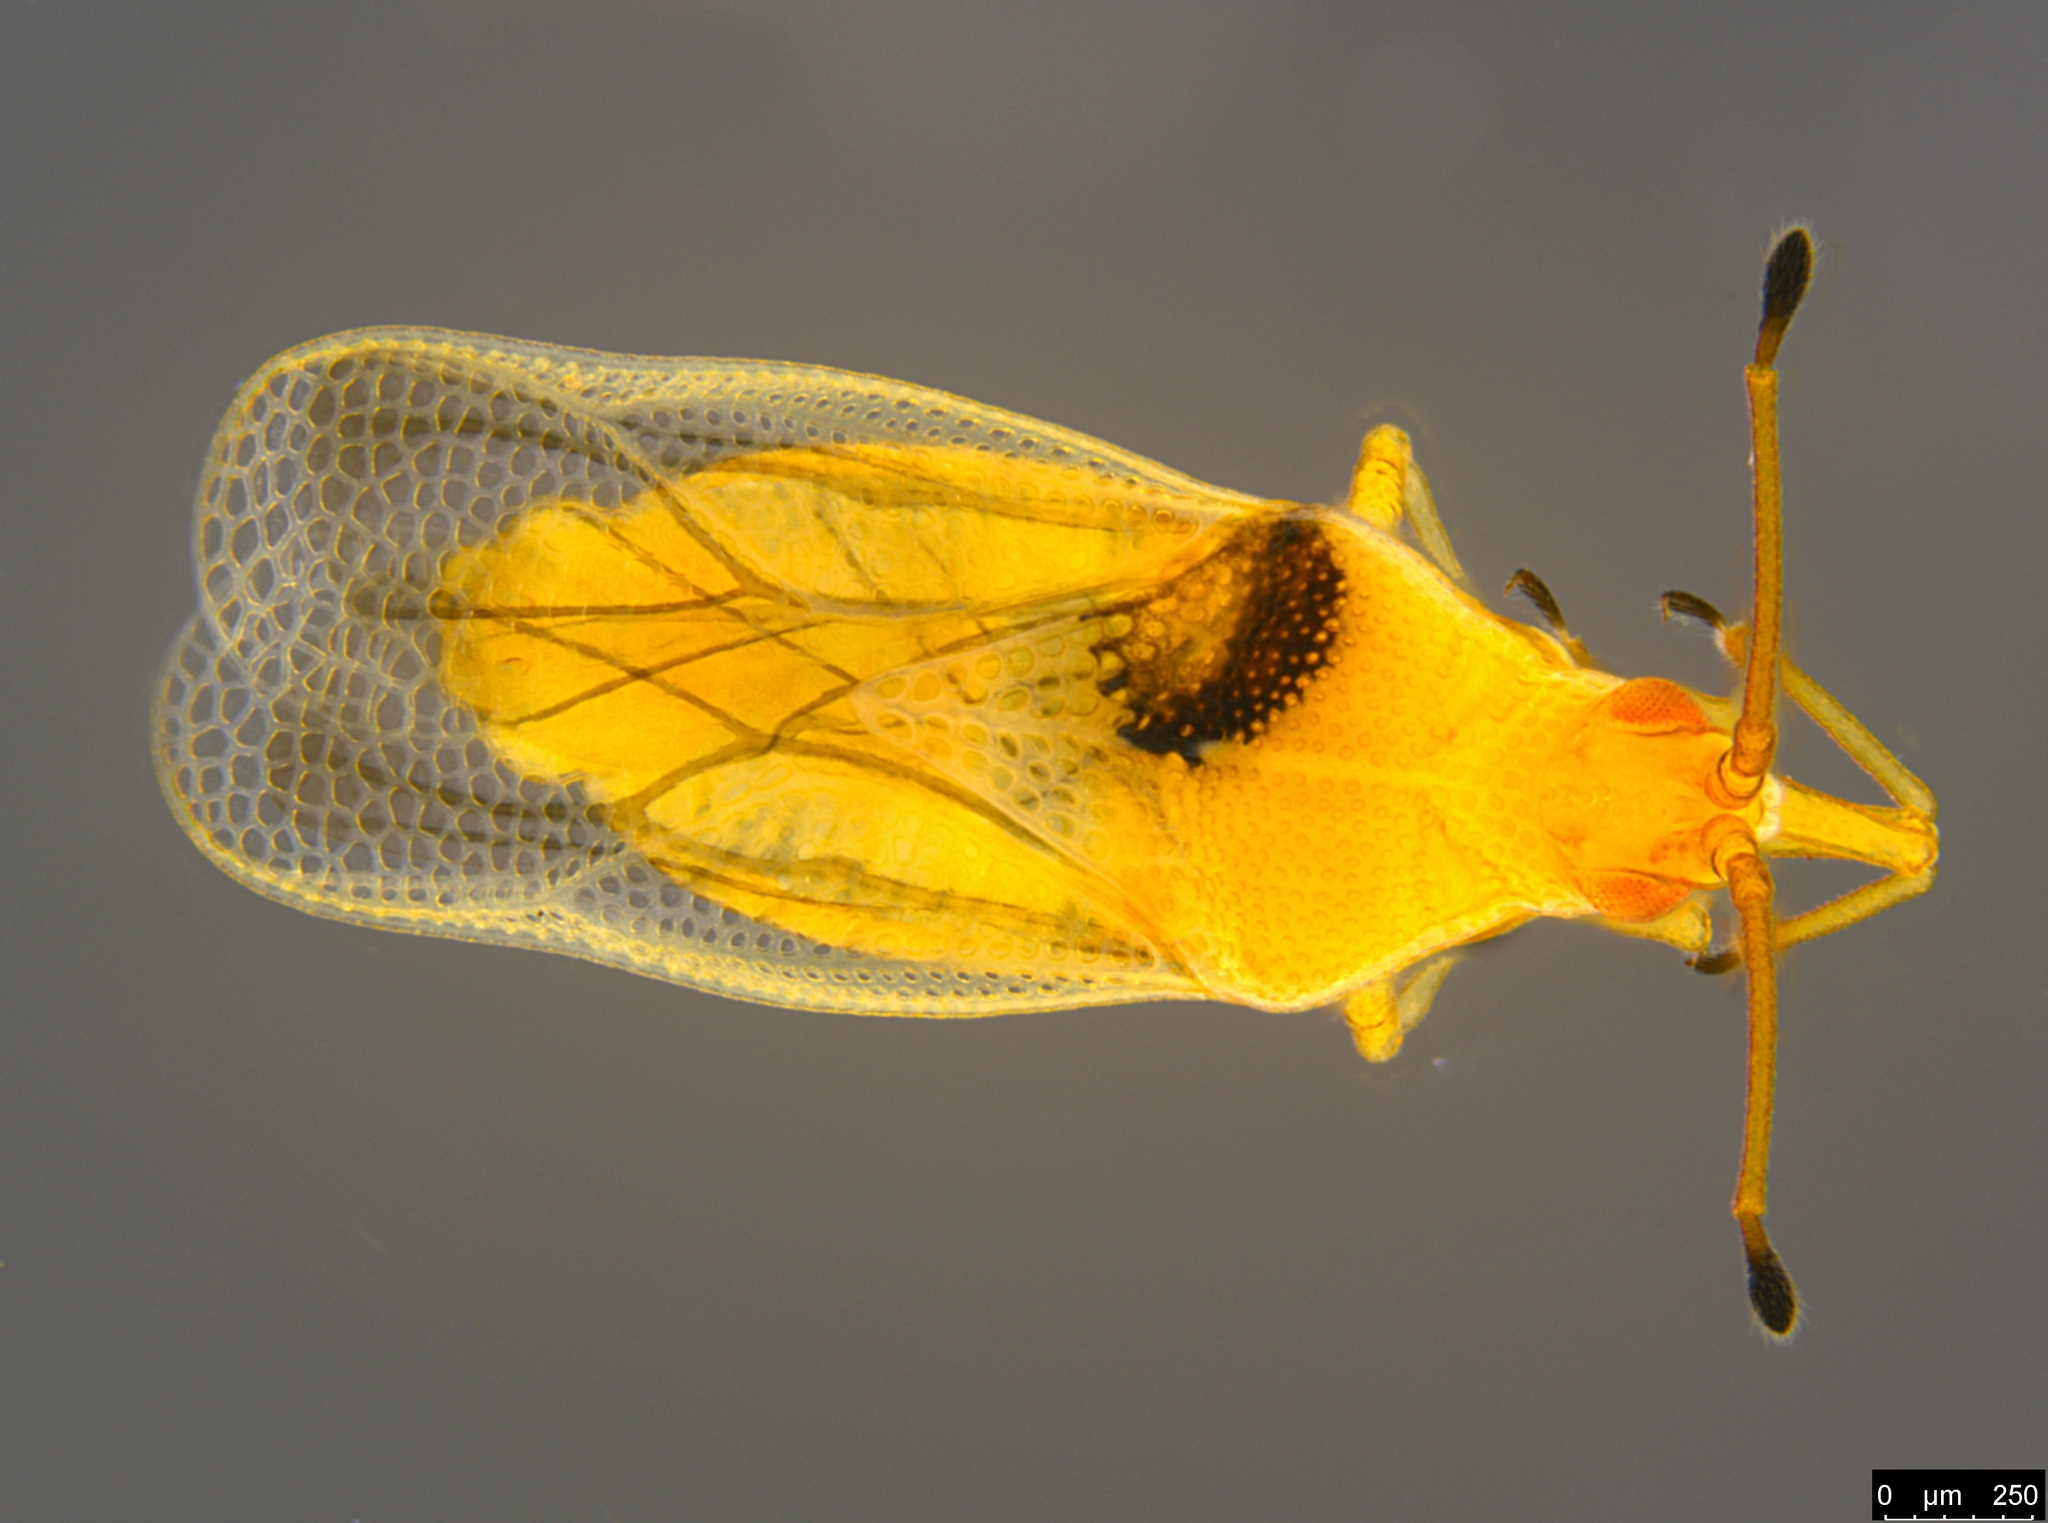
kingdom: Animalia
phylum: Arthropoda
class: Insecta
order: Hemiptera
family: Tingidae
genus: Malandiola
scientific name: Malandiola similis
